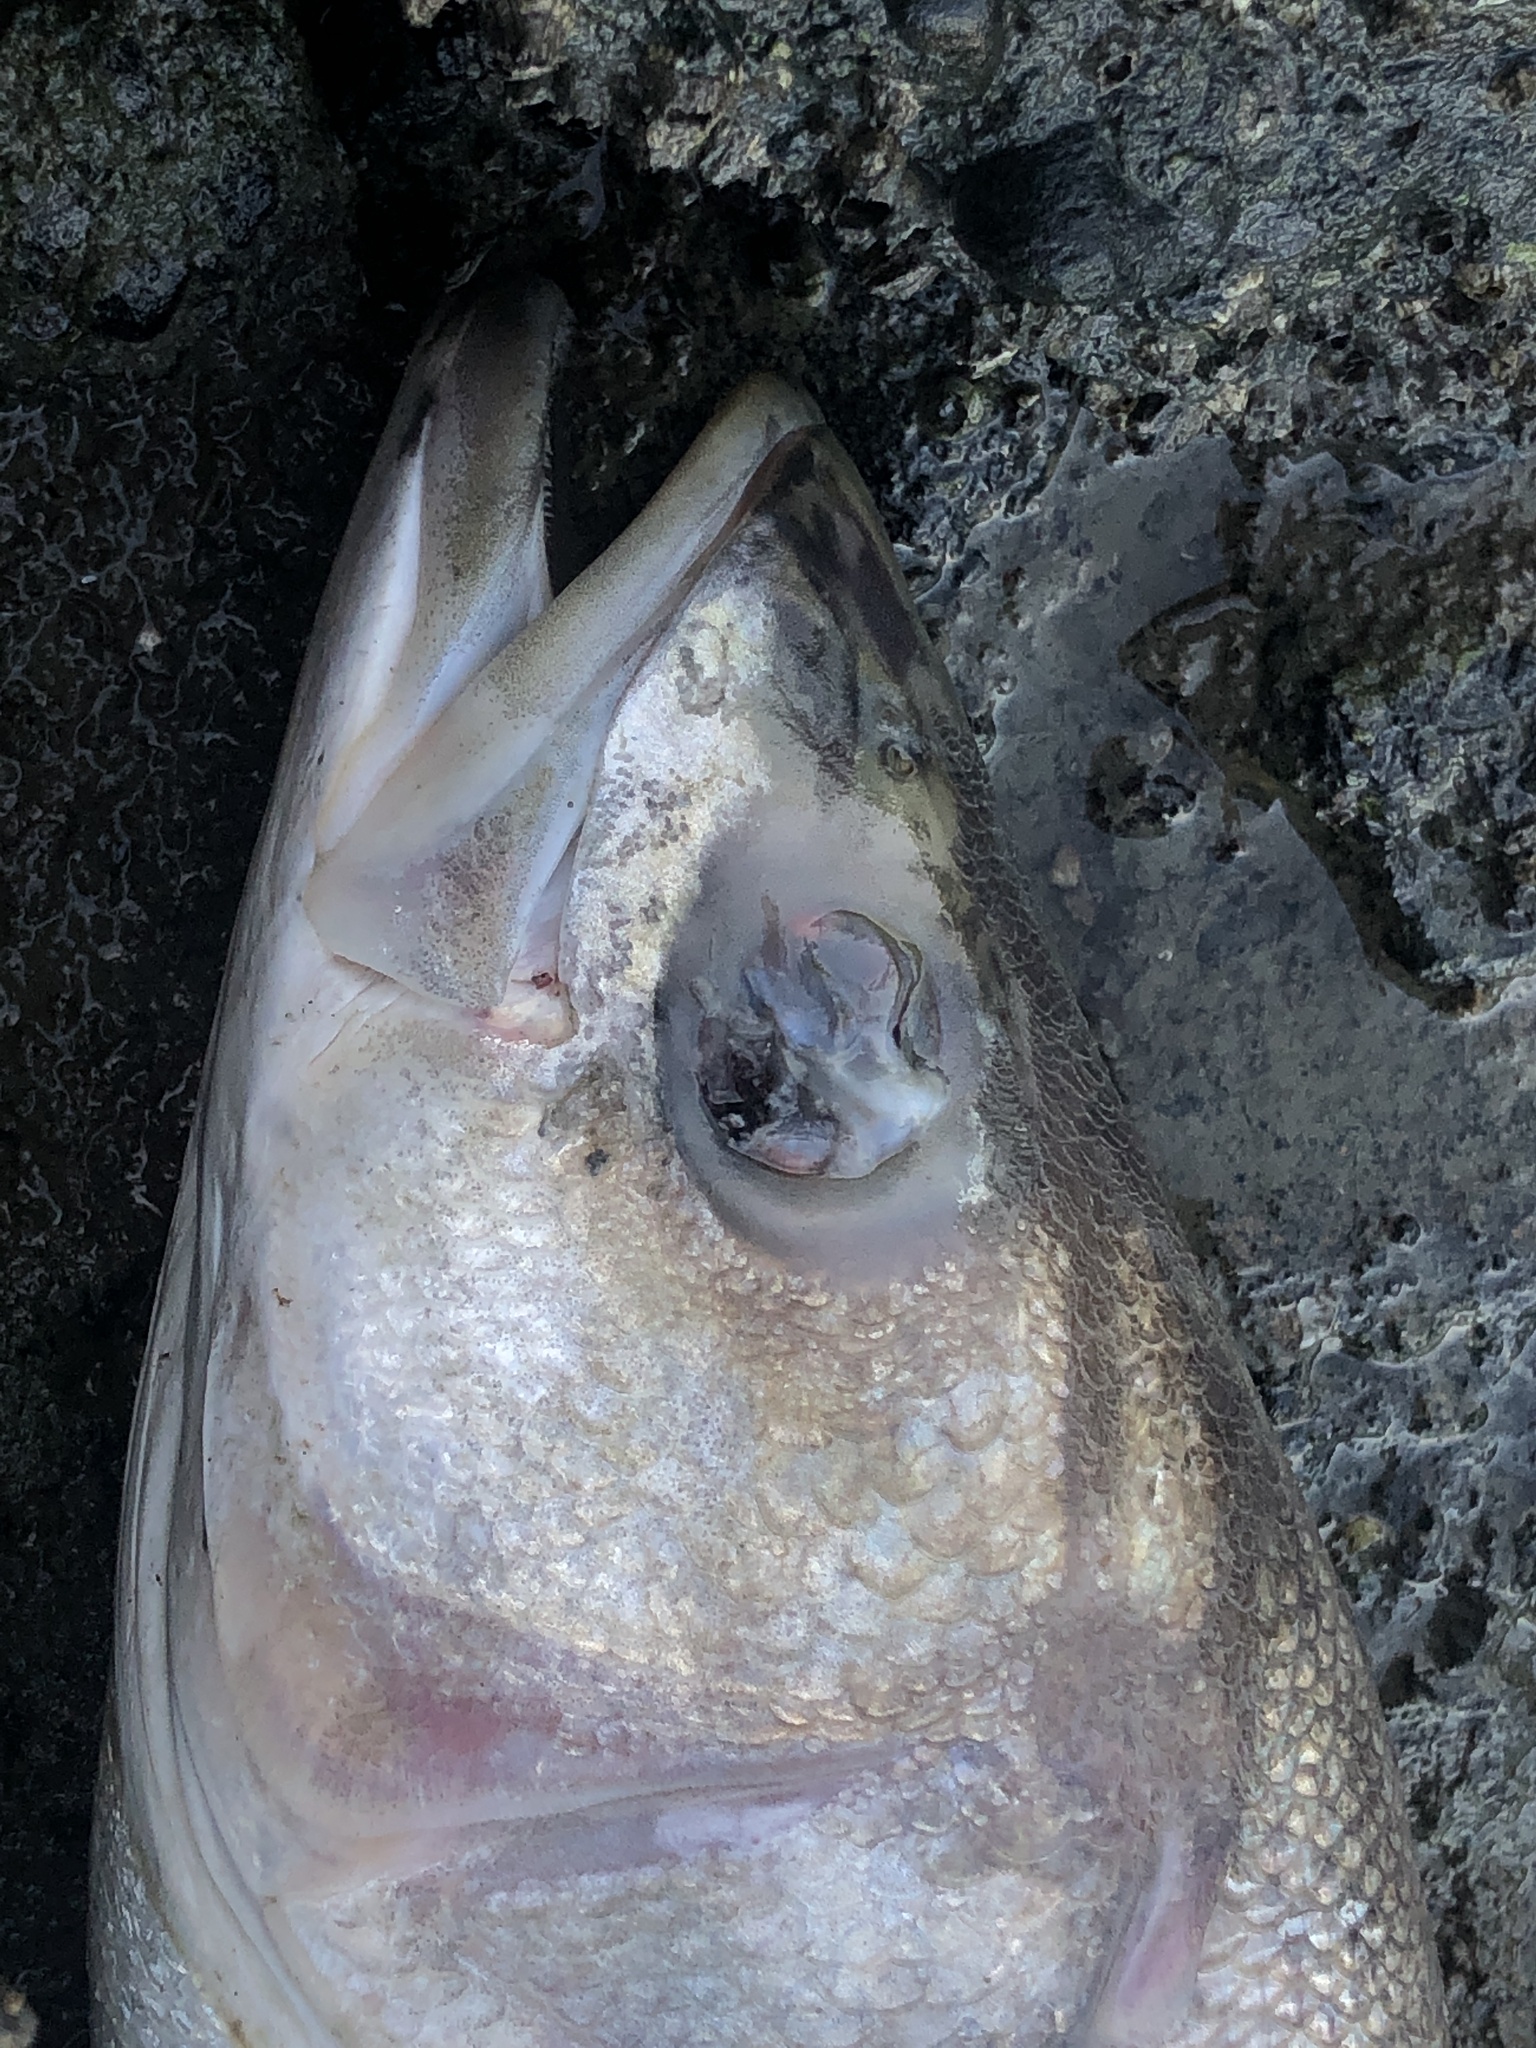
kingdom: Animalia
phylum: Chordata
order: Perciformes
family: Moronidae
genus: Morone
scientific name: Morone saxatilis
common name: Striped bass
